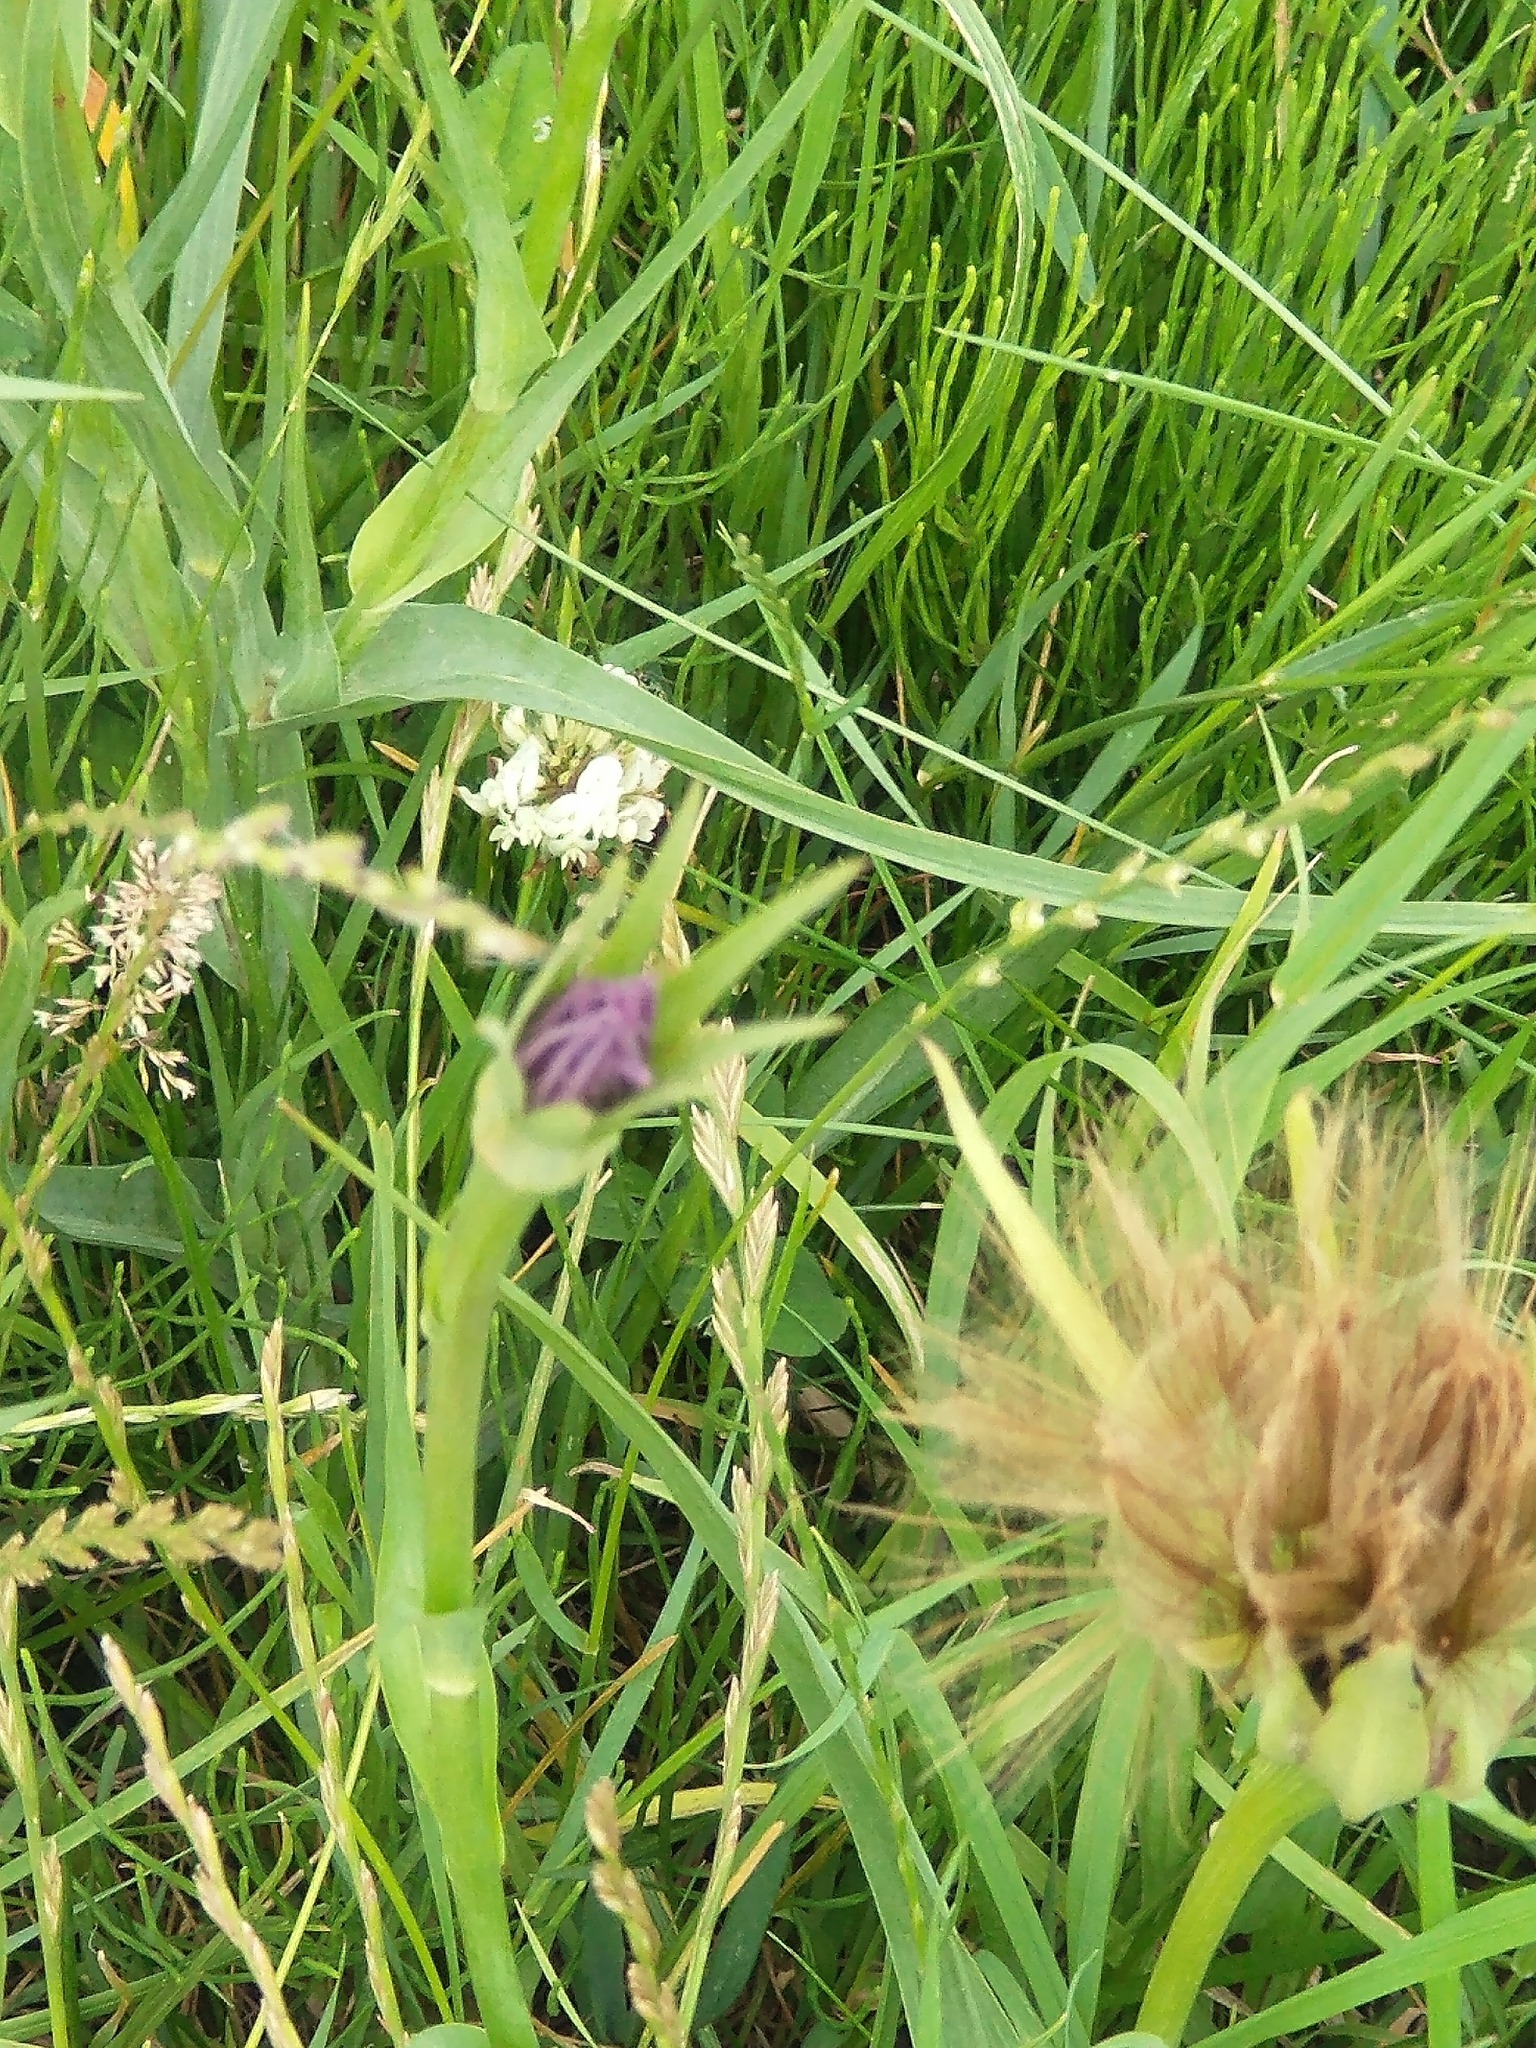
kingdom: Plantae
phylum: Tracheophyta
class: Magnoliopsida
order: Asterales
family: Asteraceae
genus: Tragopogon
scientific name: Tragopogon porrifolius
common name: Salsify
